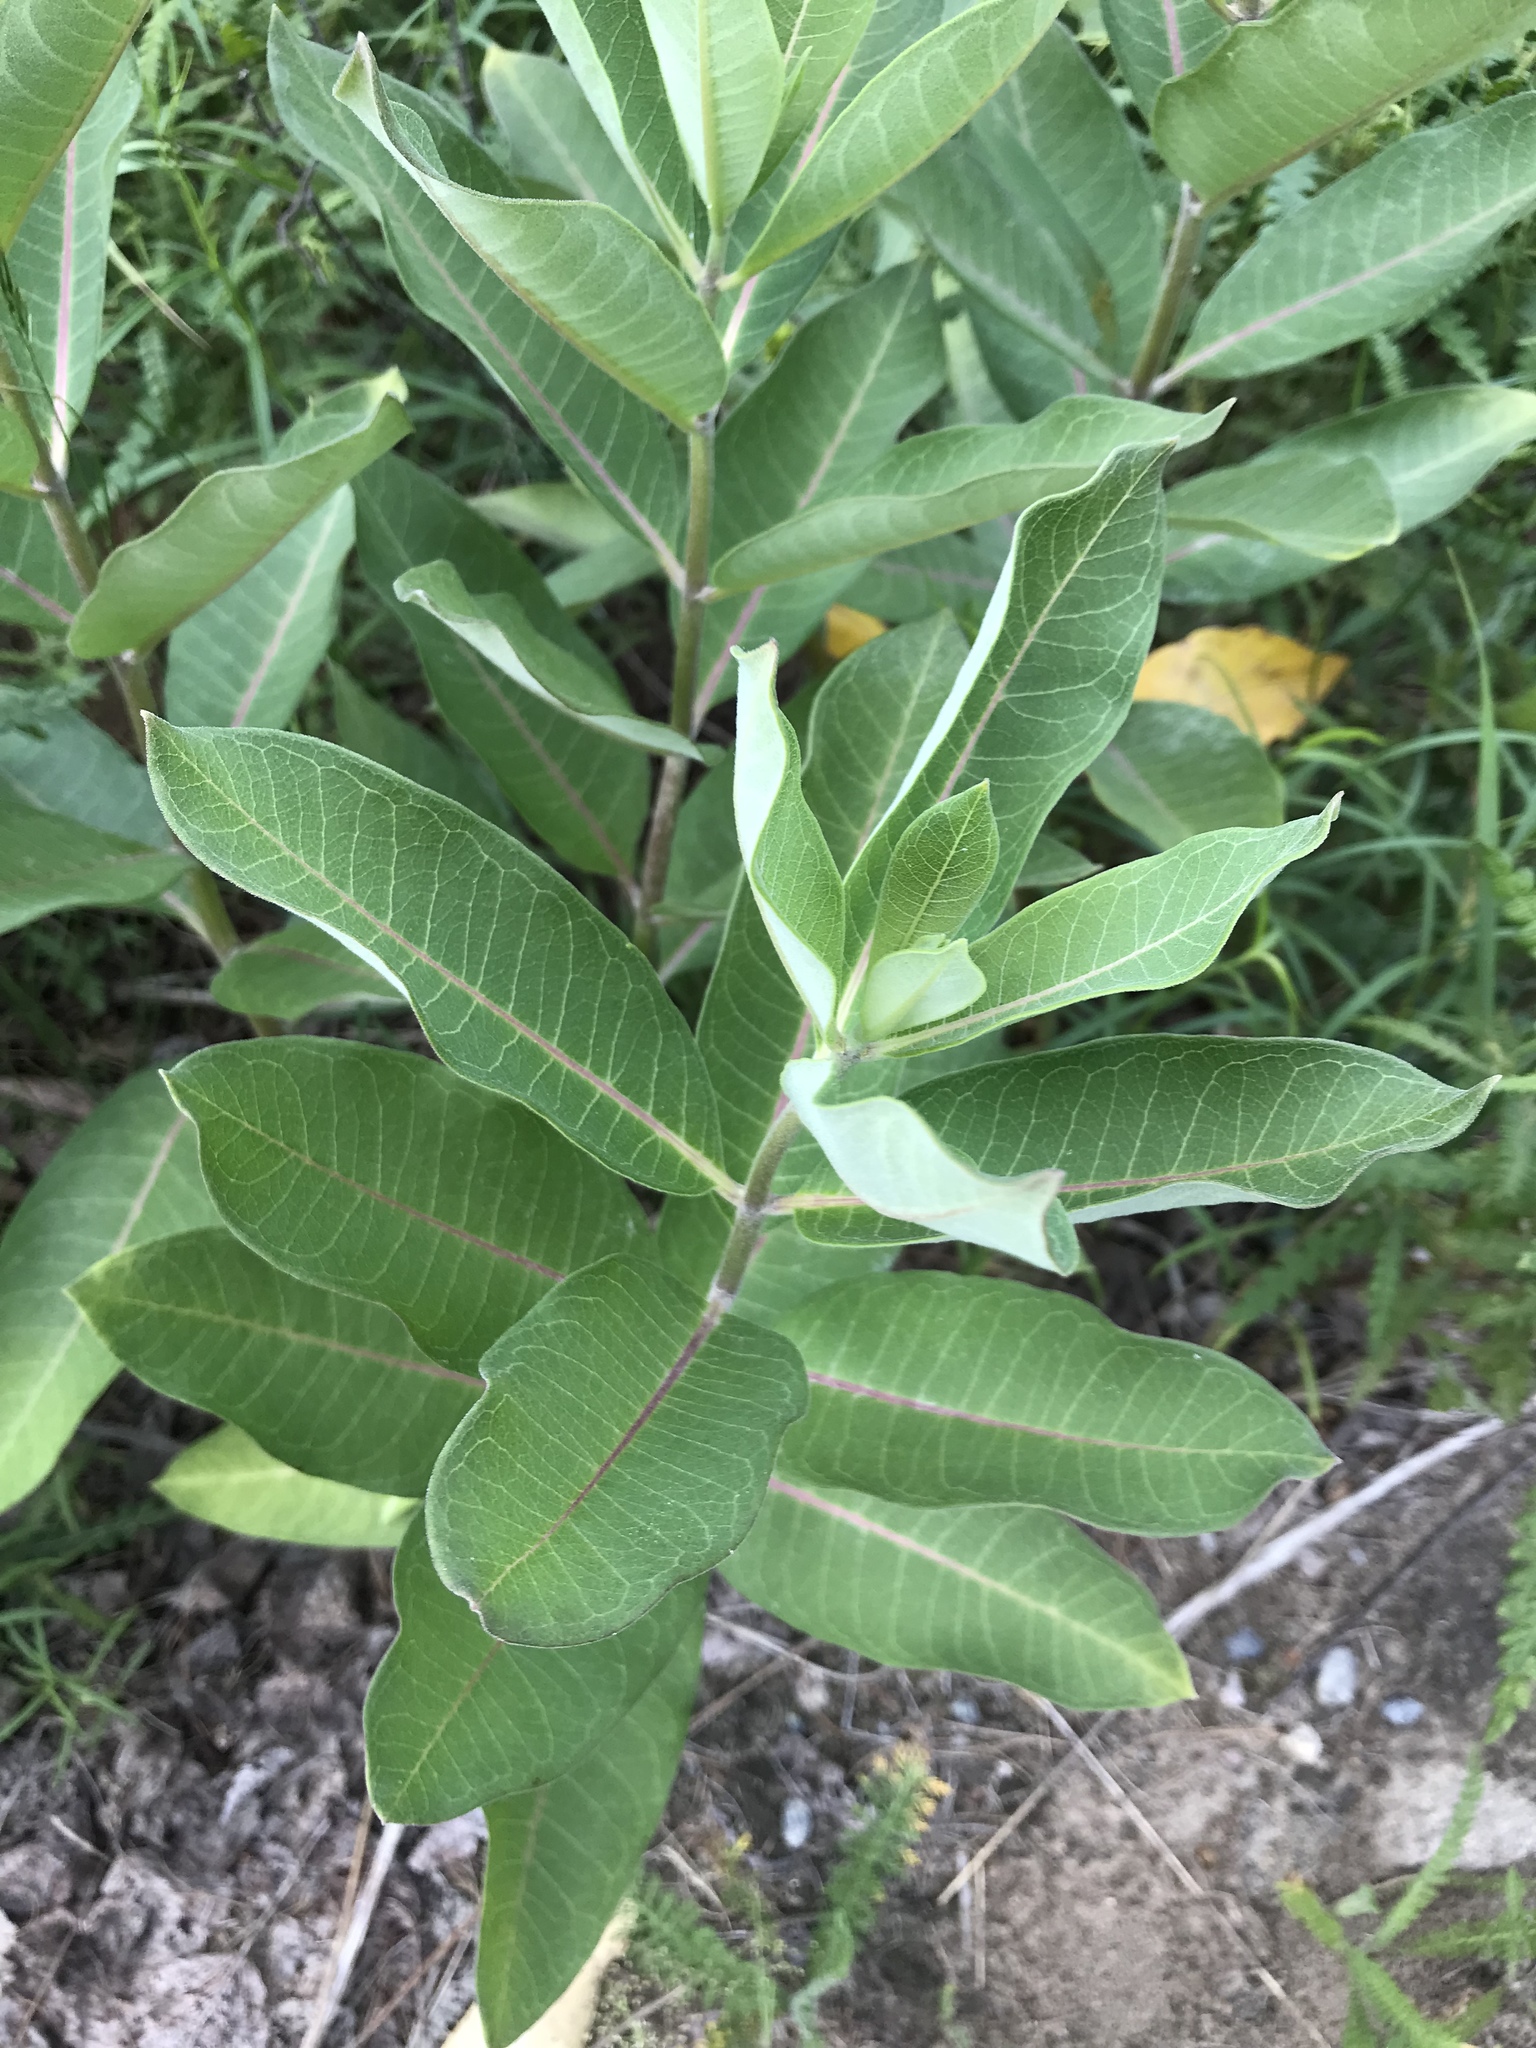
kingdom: Plantae
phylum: Tracheophyta
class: Magnoliopsida
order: Gentianales
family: Apocynaceae
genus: Asclepias
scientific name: Asclepias syriaca
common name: Common milkweed
